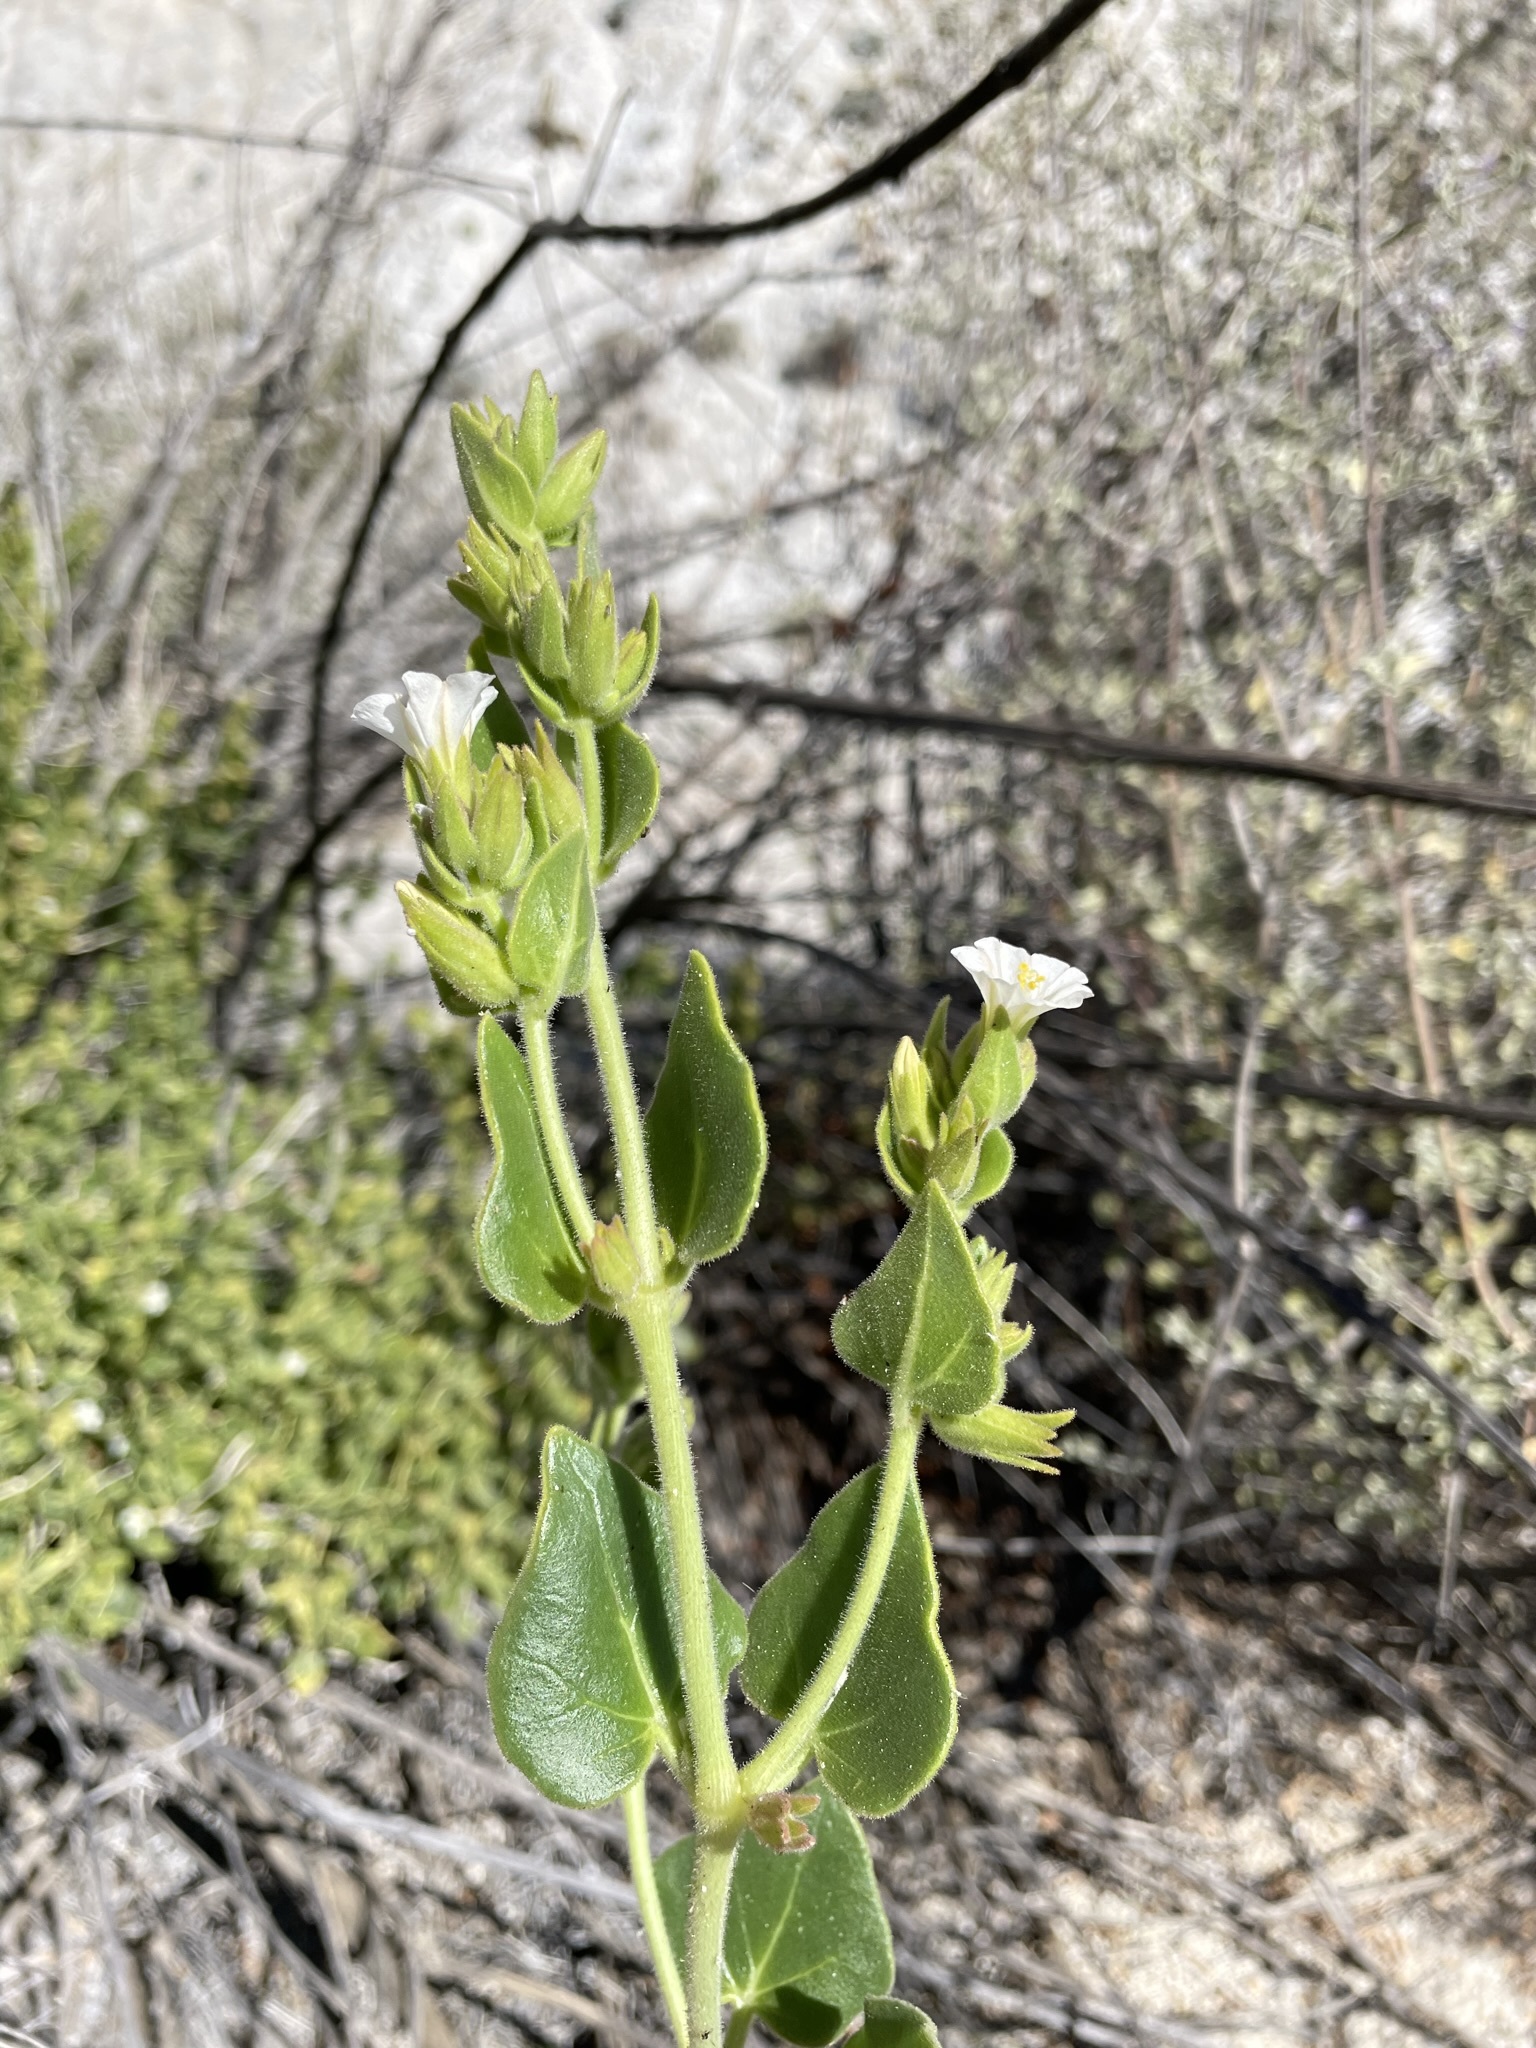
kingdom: Plantae
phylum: Tracheophyta
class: Magnoliopsida
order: Caryophyllales
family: Nyctaginaceae
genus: Mirabilis
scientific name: Mirabilis tenuiloba
